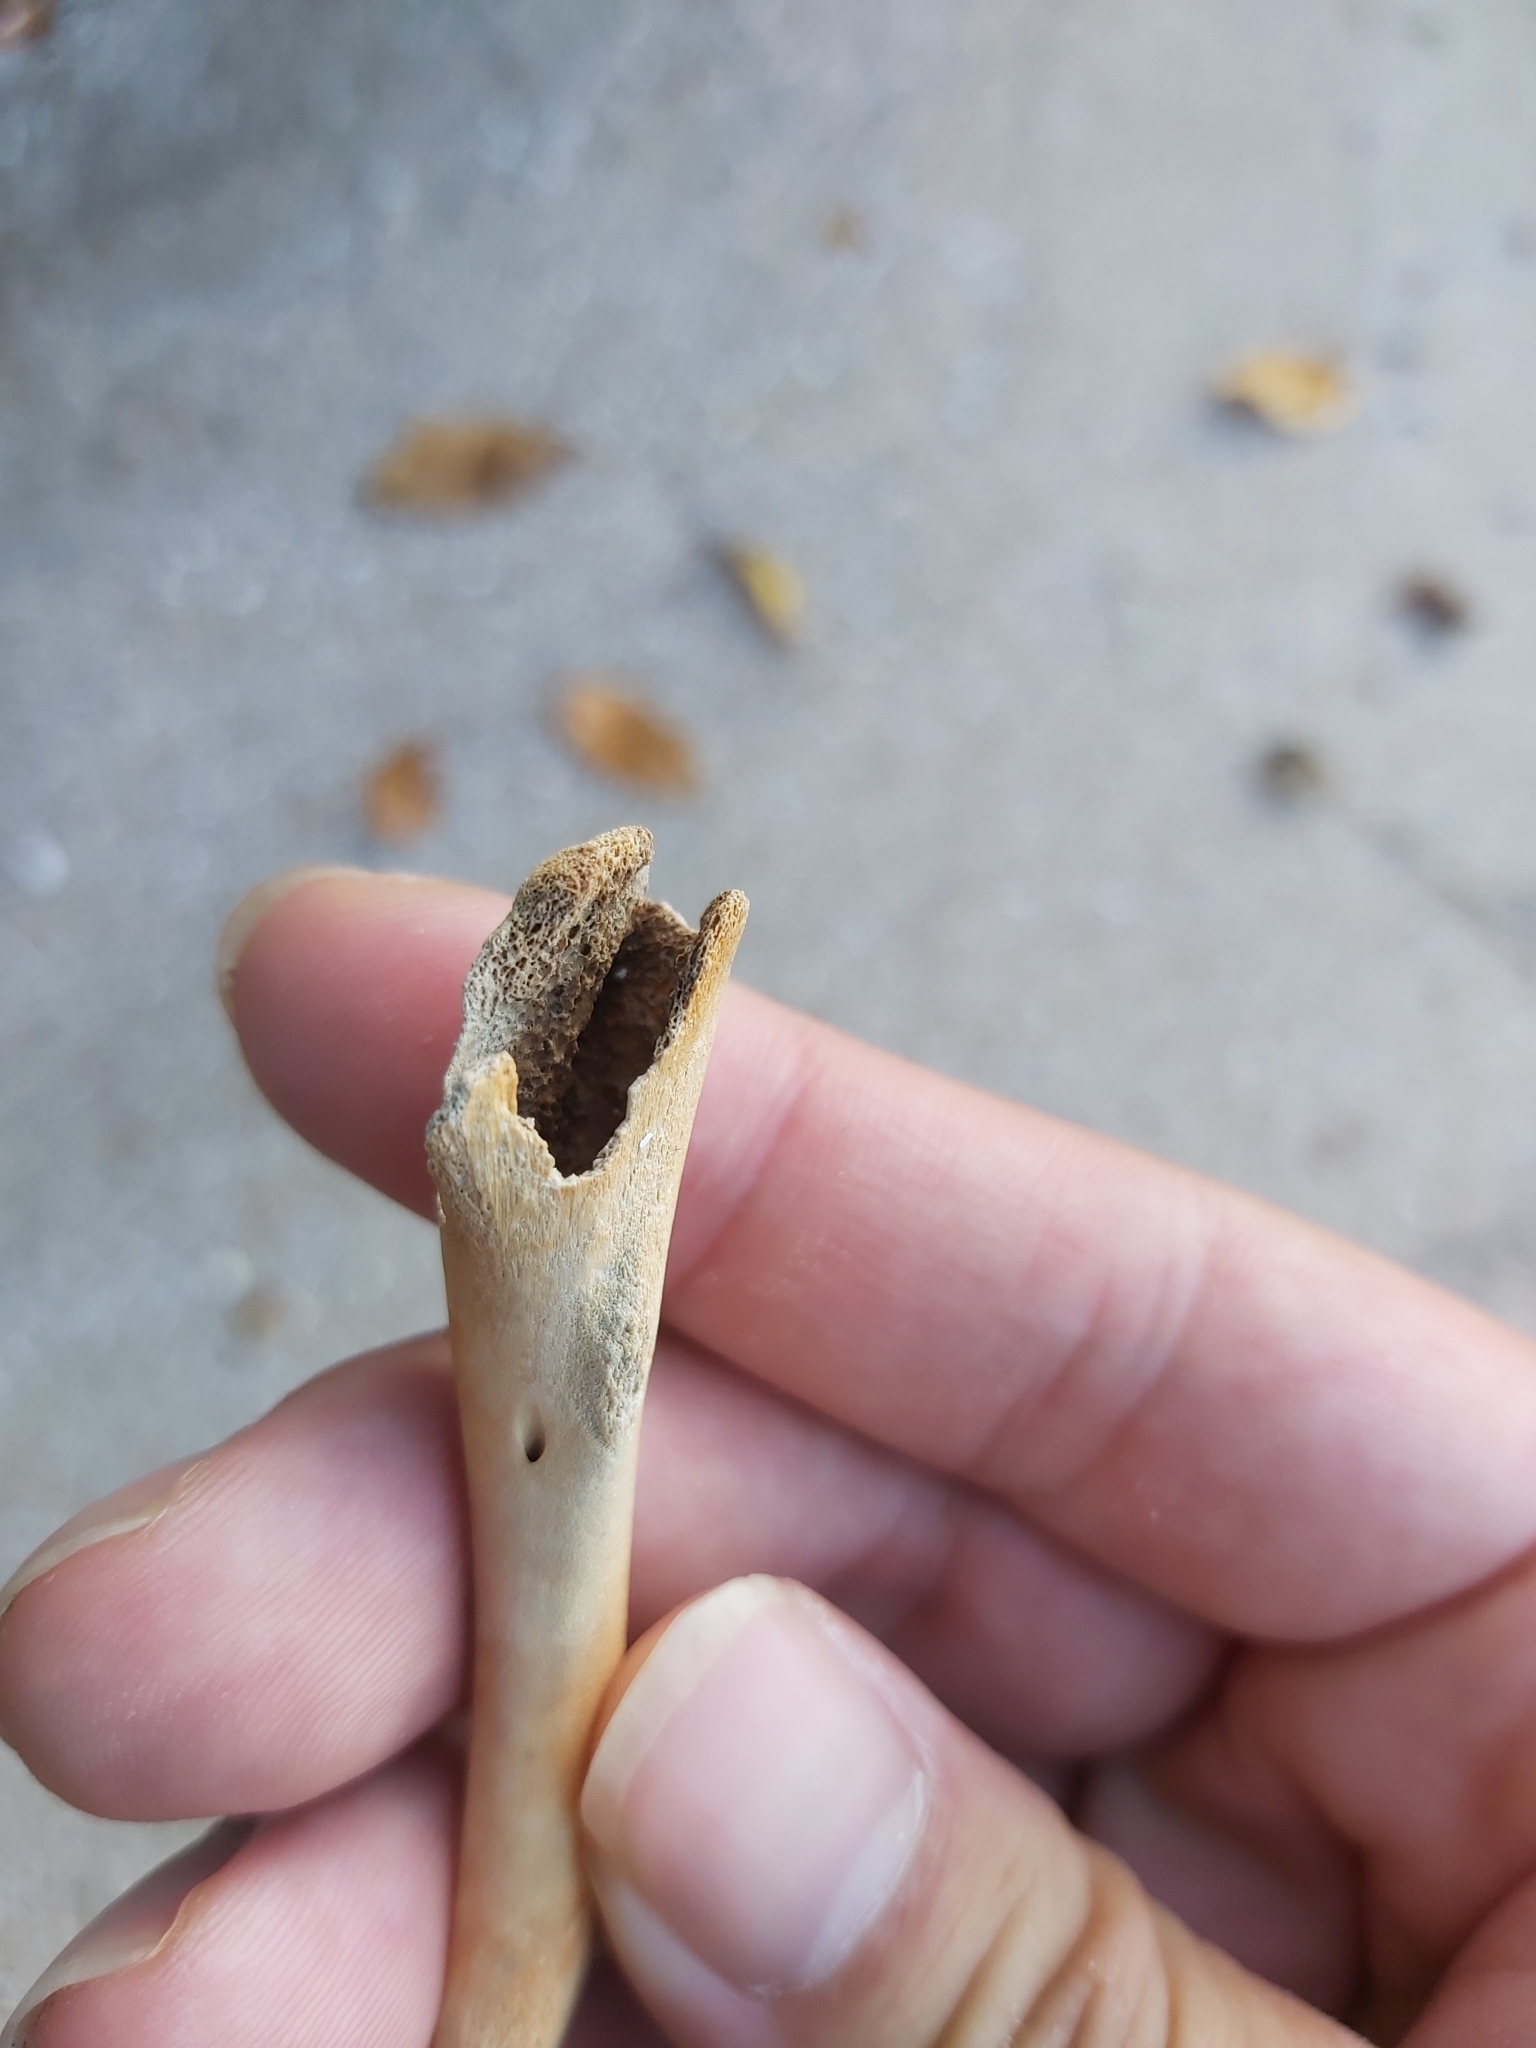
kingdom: Animalia
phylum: Chordata
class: Aves
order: Galliformes
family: Phasianidae
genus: Gallus
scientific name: Gallus gallus
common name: Red junglefowl
